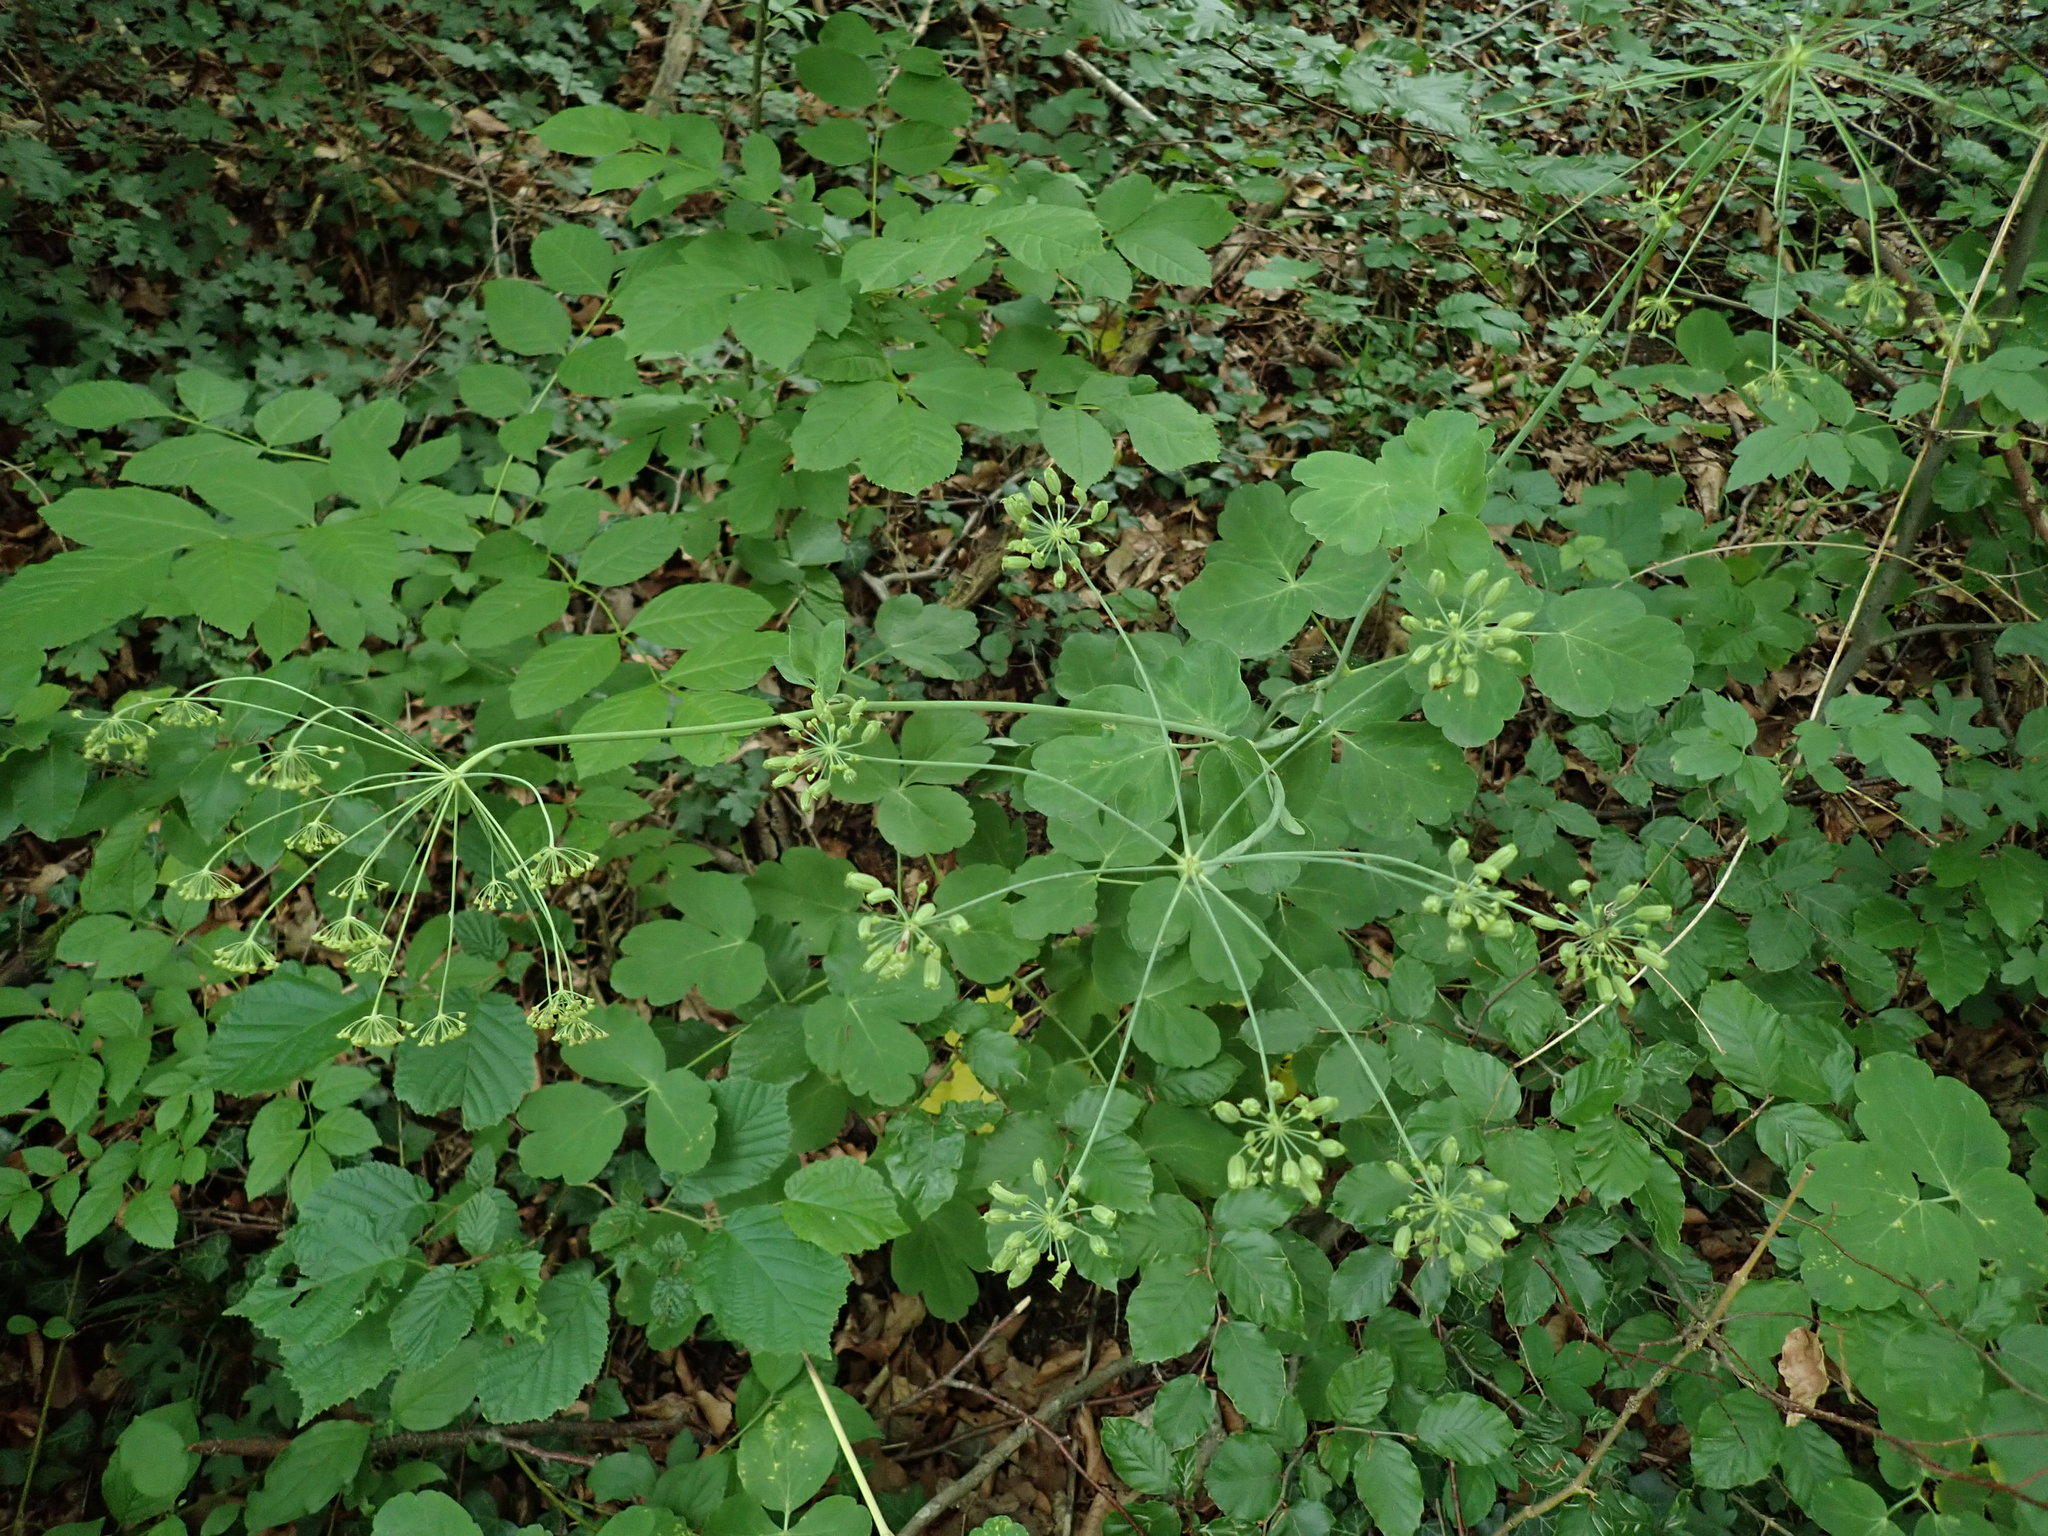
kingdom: Plantae
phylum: Tracheophyta
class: Magnoliopsida
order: Apiales
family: Apiaceae
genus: Laser
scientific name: Laser trilobum
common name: Laser
